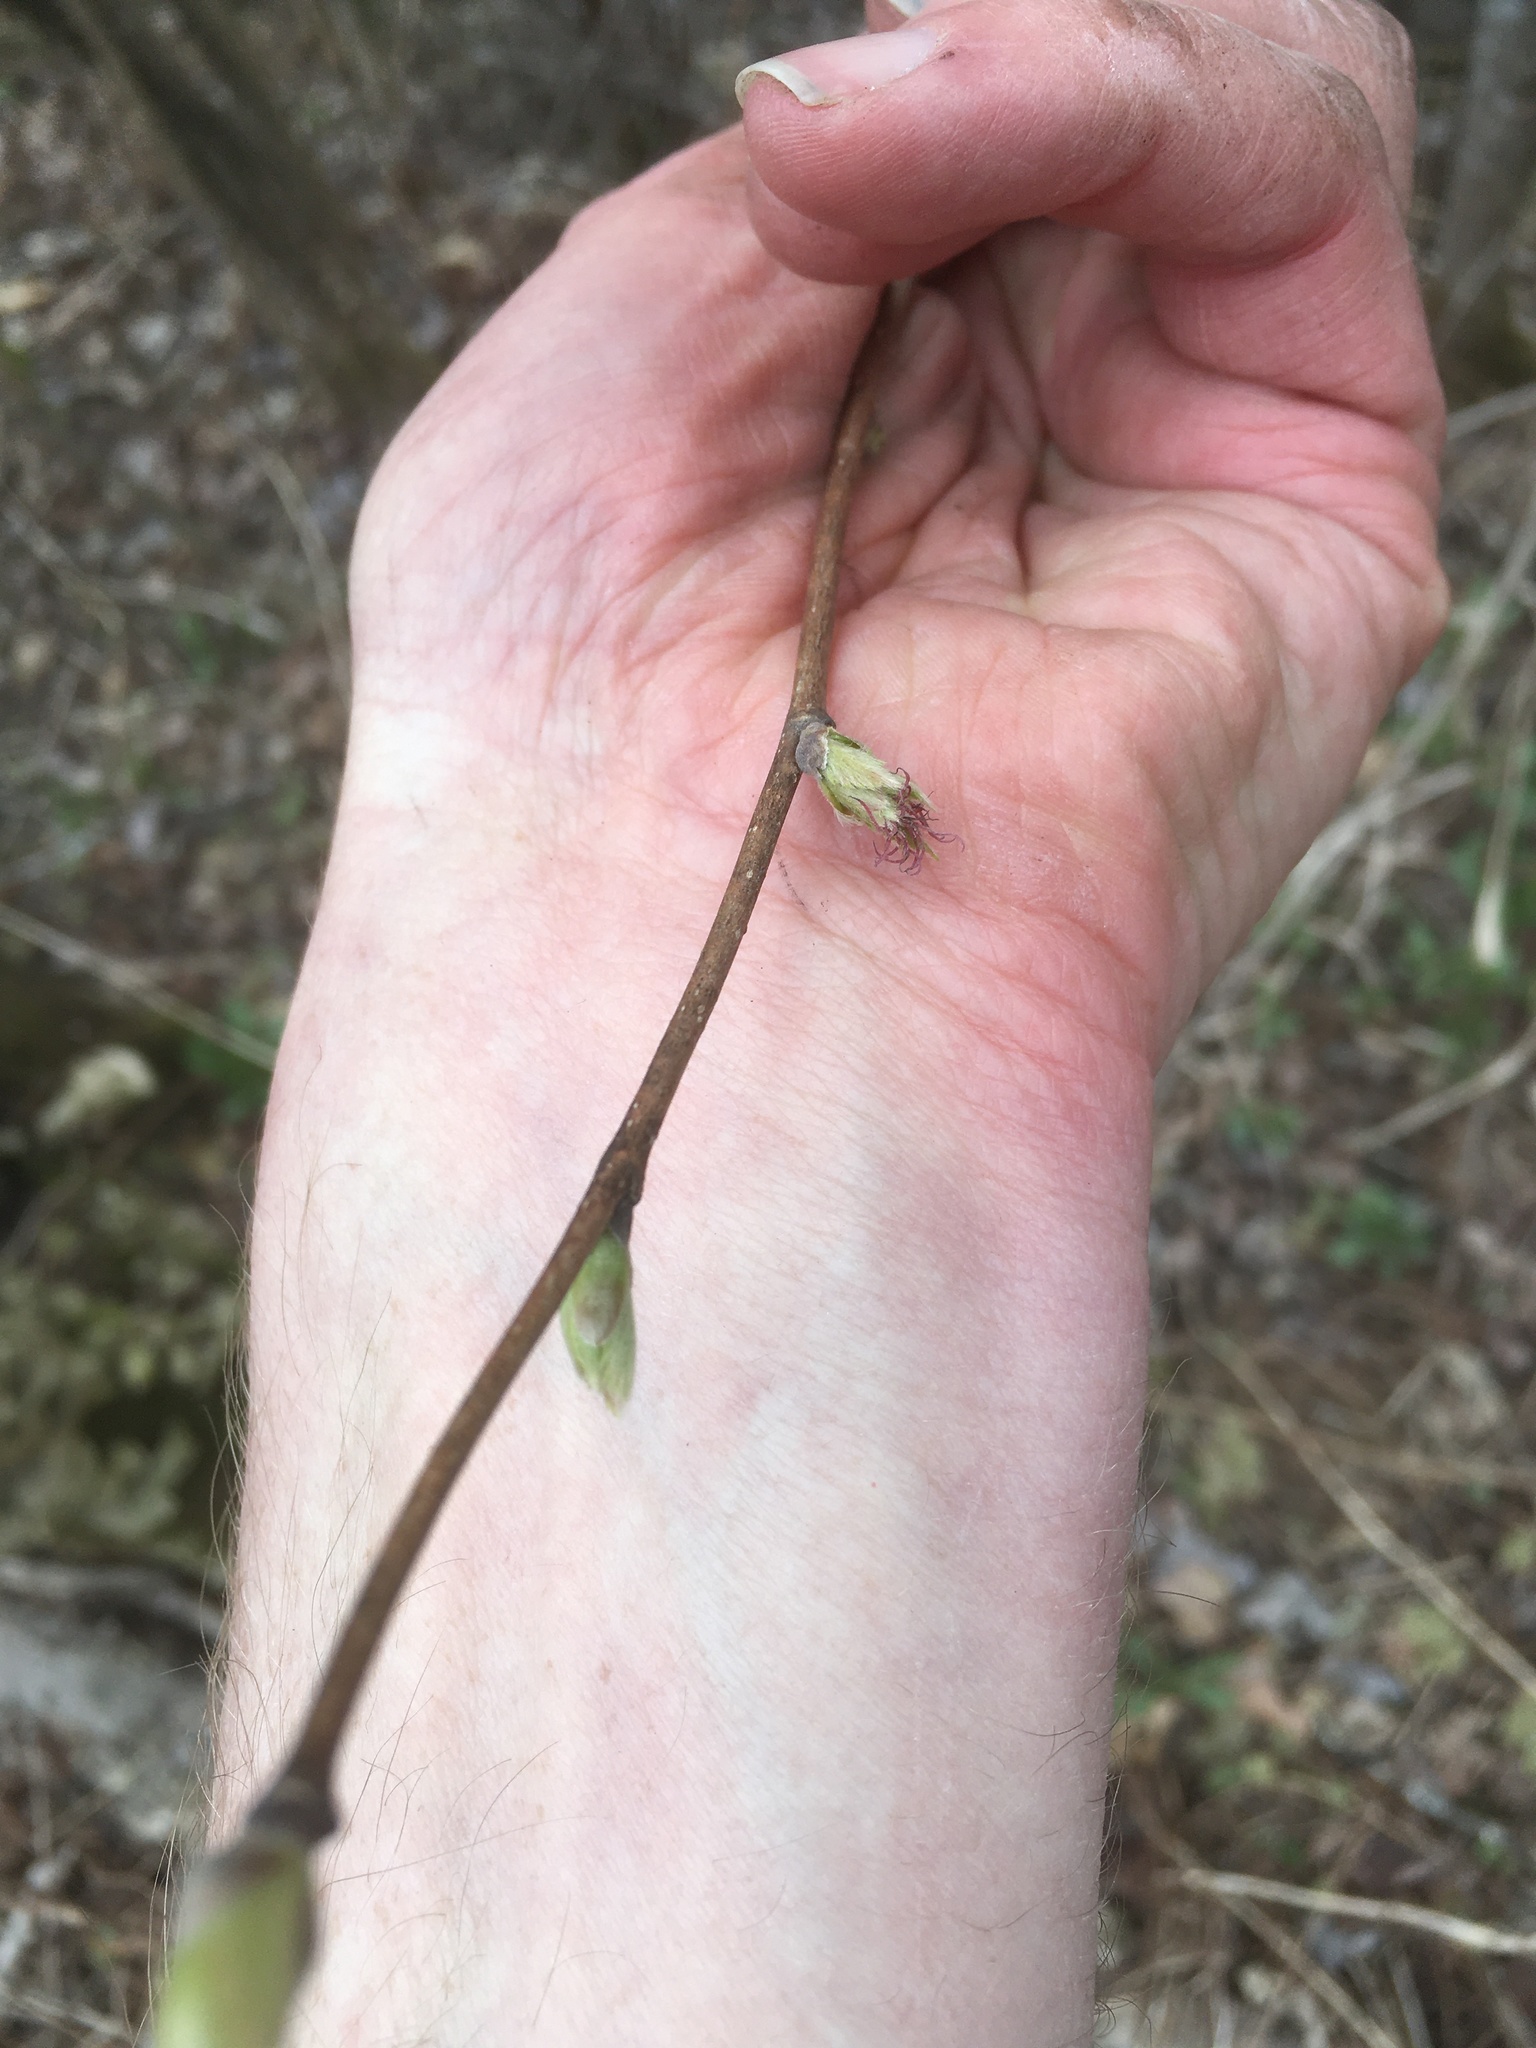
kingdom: Plantae
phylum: Tracheophyta
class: Magnoliopsida
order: Fagales
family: Betulaceae
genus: Corylus
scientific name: Corylus cornuta
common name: Beaked hazel
